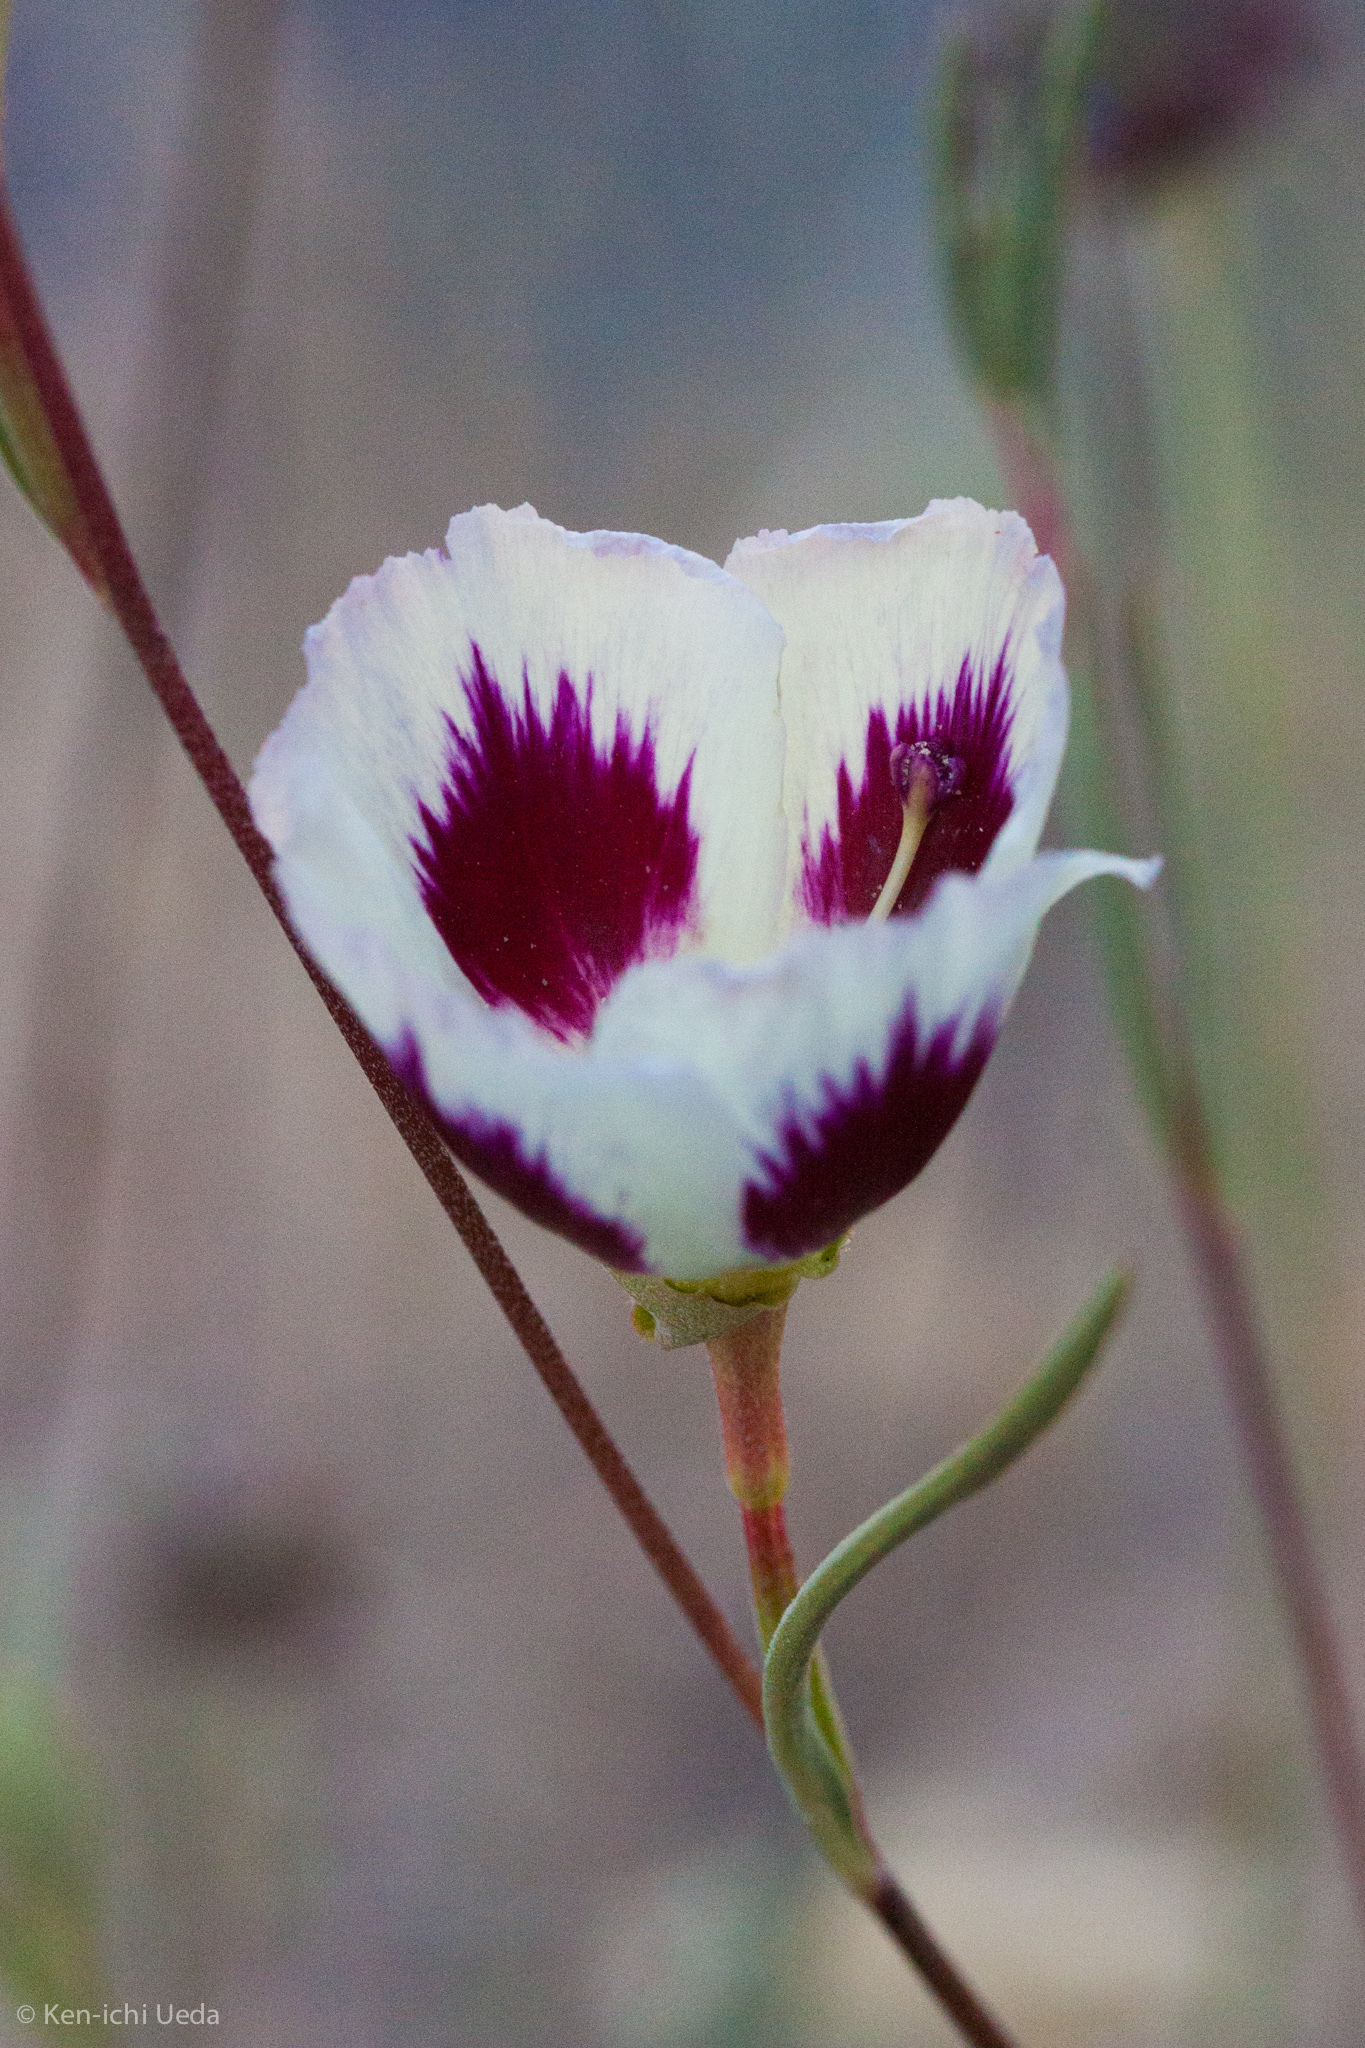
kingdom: Plantae
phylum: Tracheophyta
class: Magnoliopsida
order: Myrtales
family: Onagraceae
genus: Clarkia
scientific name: Clarkia speciosa
